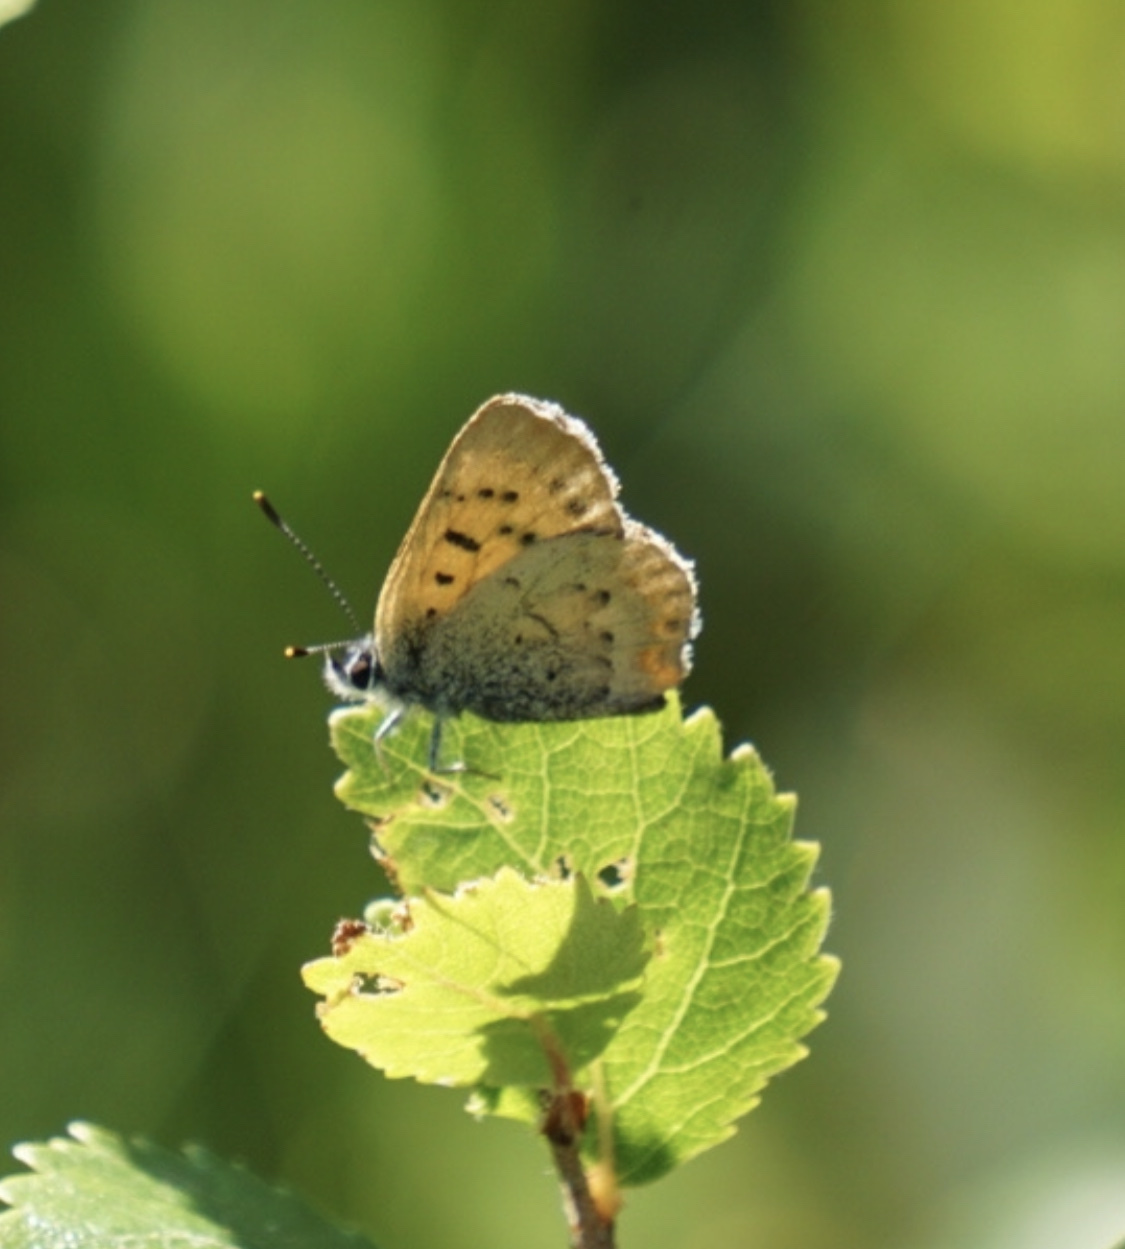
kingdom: Animalia
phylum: Arthropoda
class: Insecta
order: Lepidoptera
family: Lycaenidae
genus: Tharsalea
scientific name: Tharsalea dorcas
